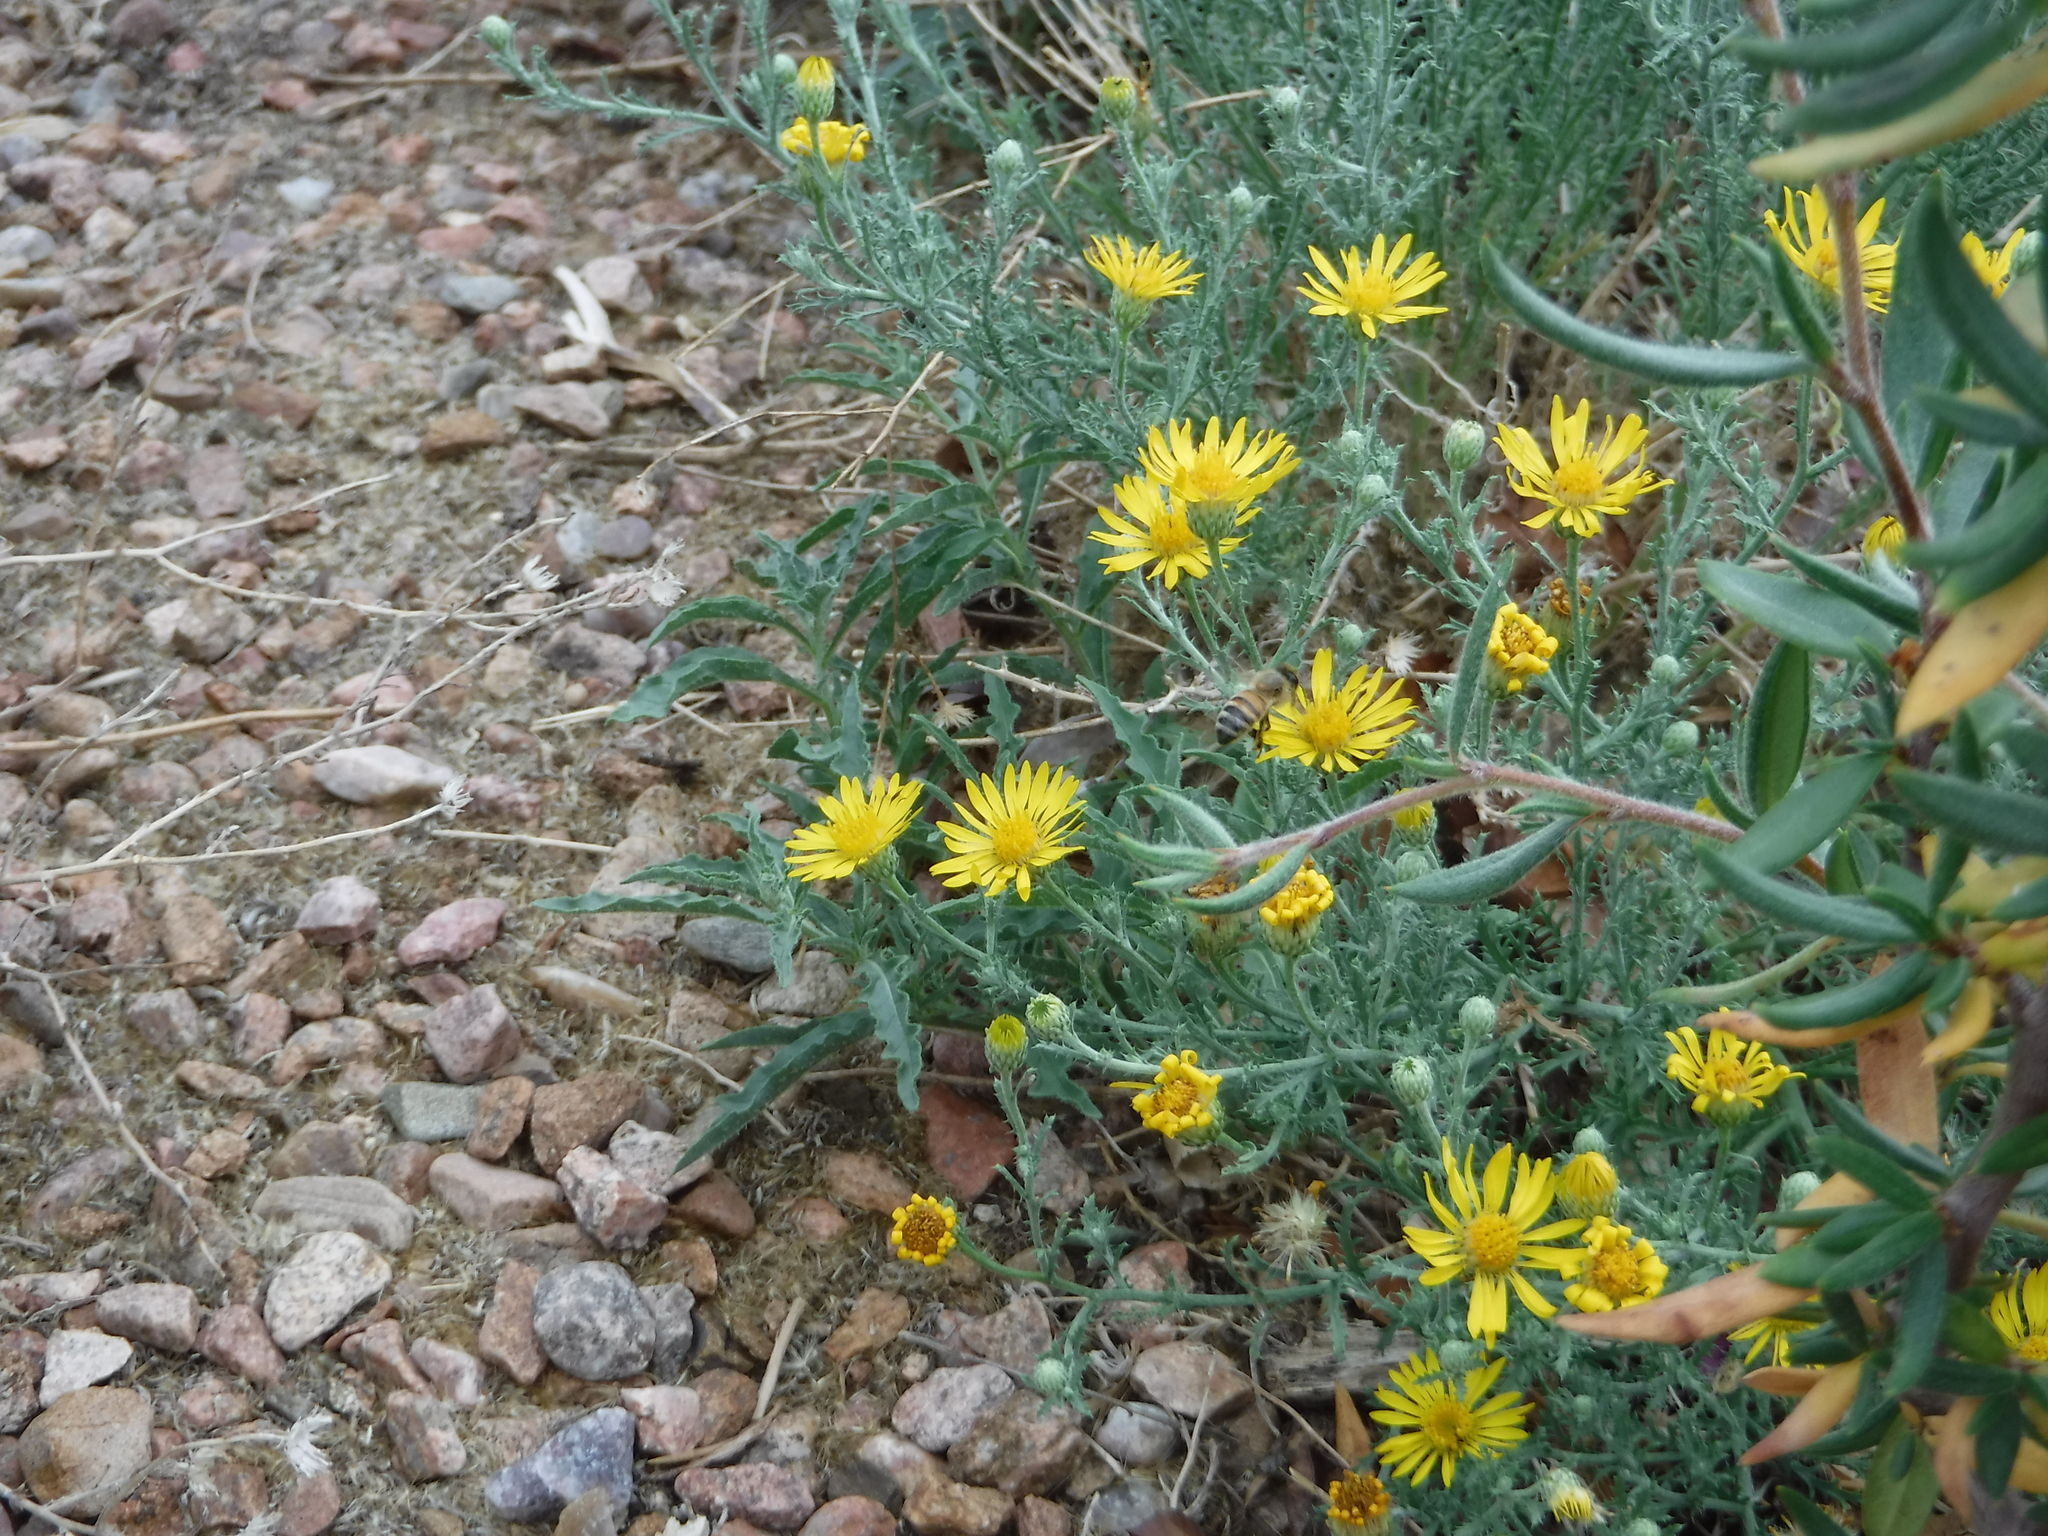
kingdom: Animalia
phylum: Arthropoda
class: Insecta
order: Hymenoptera
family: Apidae
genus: Apis
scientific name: Apis mellifera
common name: Honey bee
